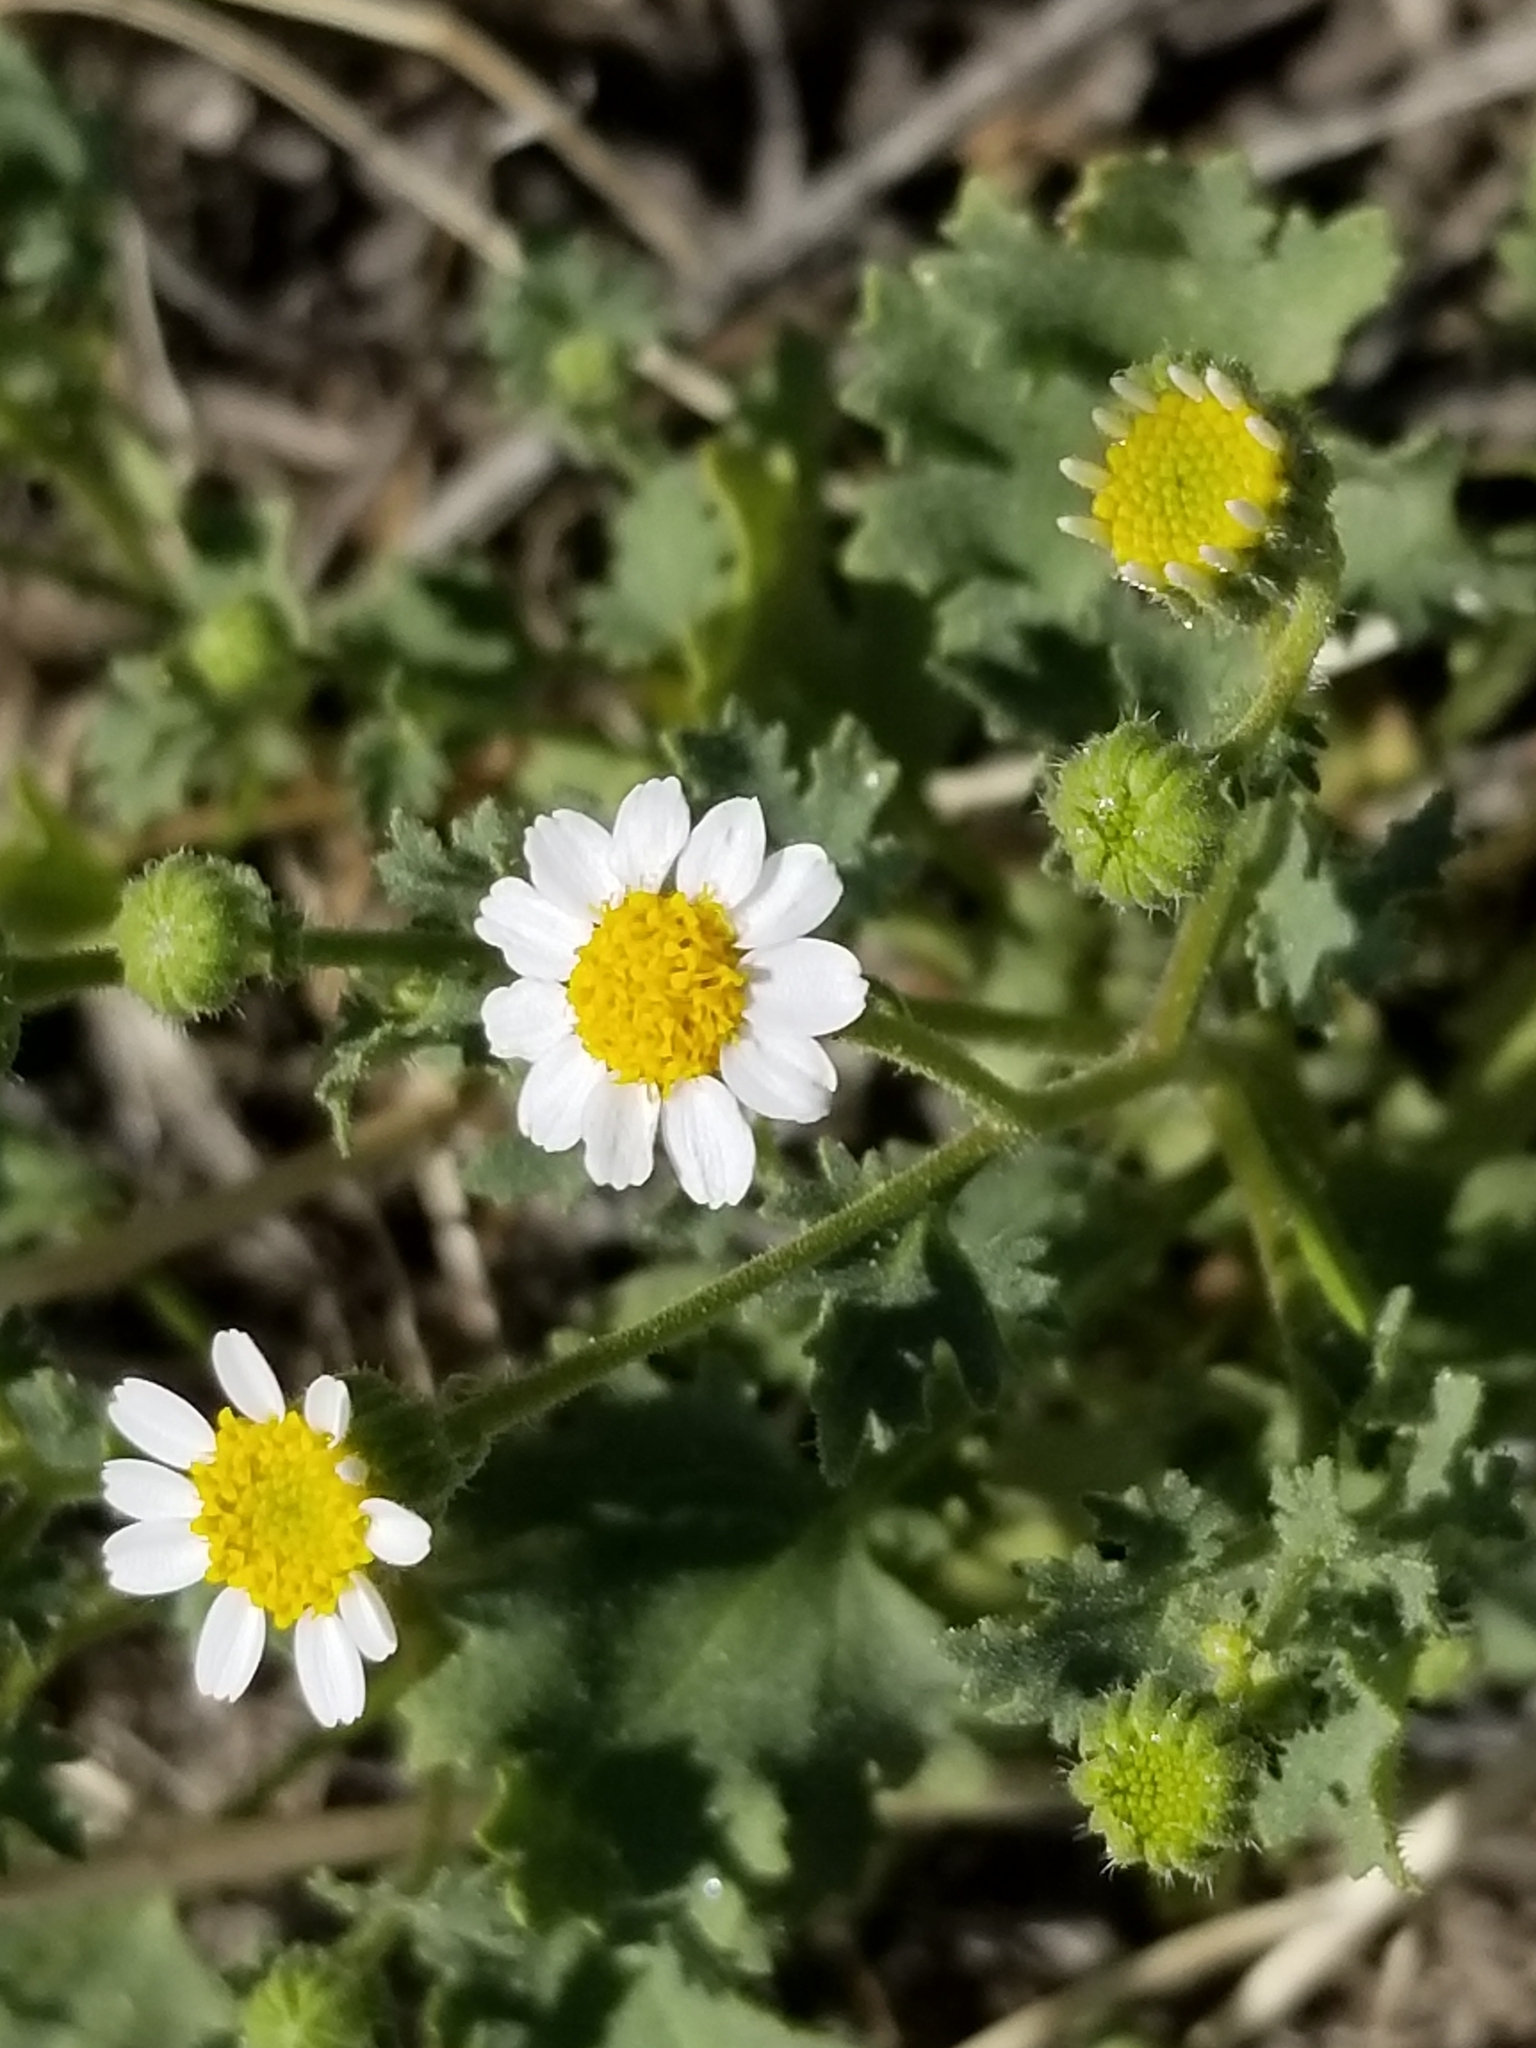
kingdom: Plantae
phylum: Tracheophyta
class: Magnoliopsida
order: Asterales
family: Asteraceae
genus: Laphamia
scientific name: Laphamia emoryi
